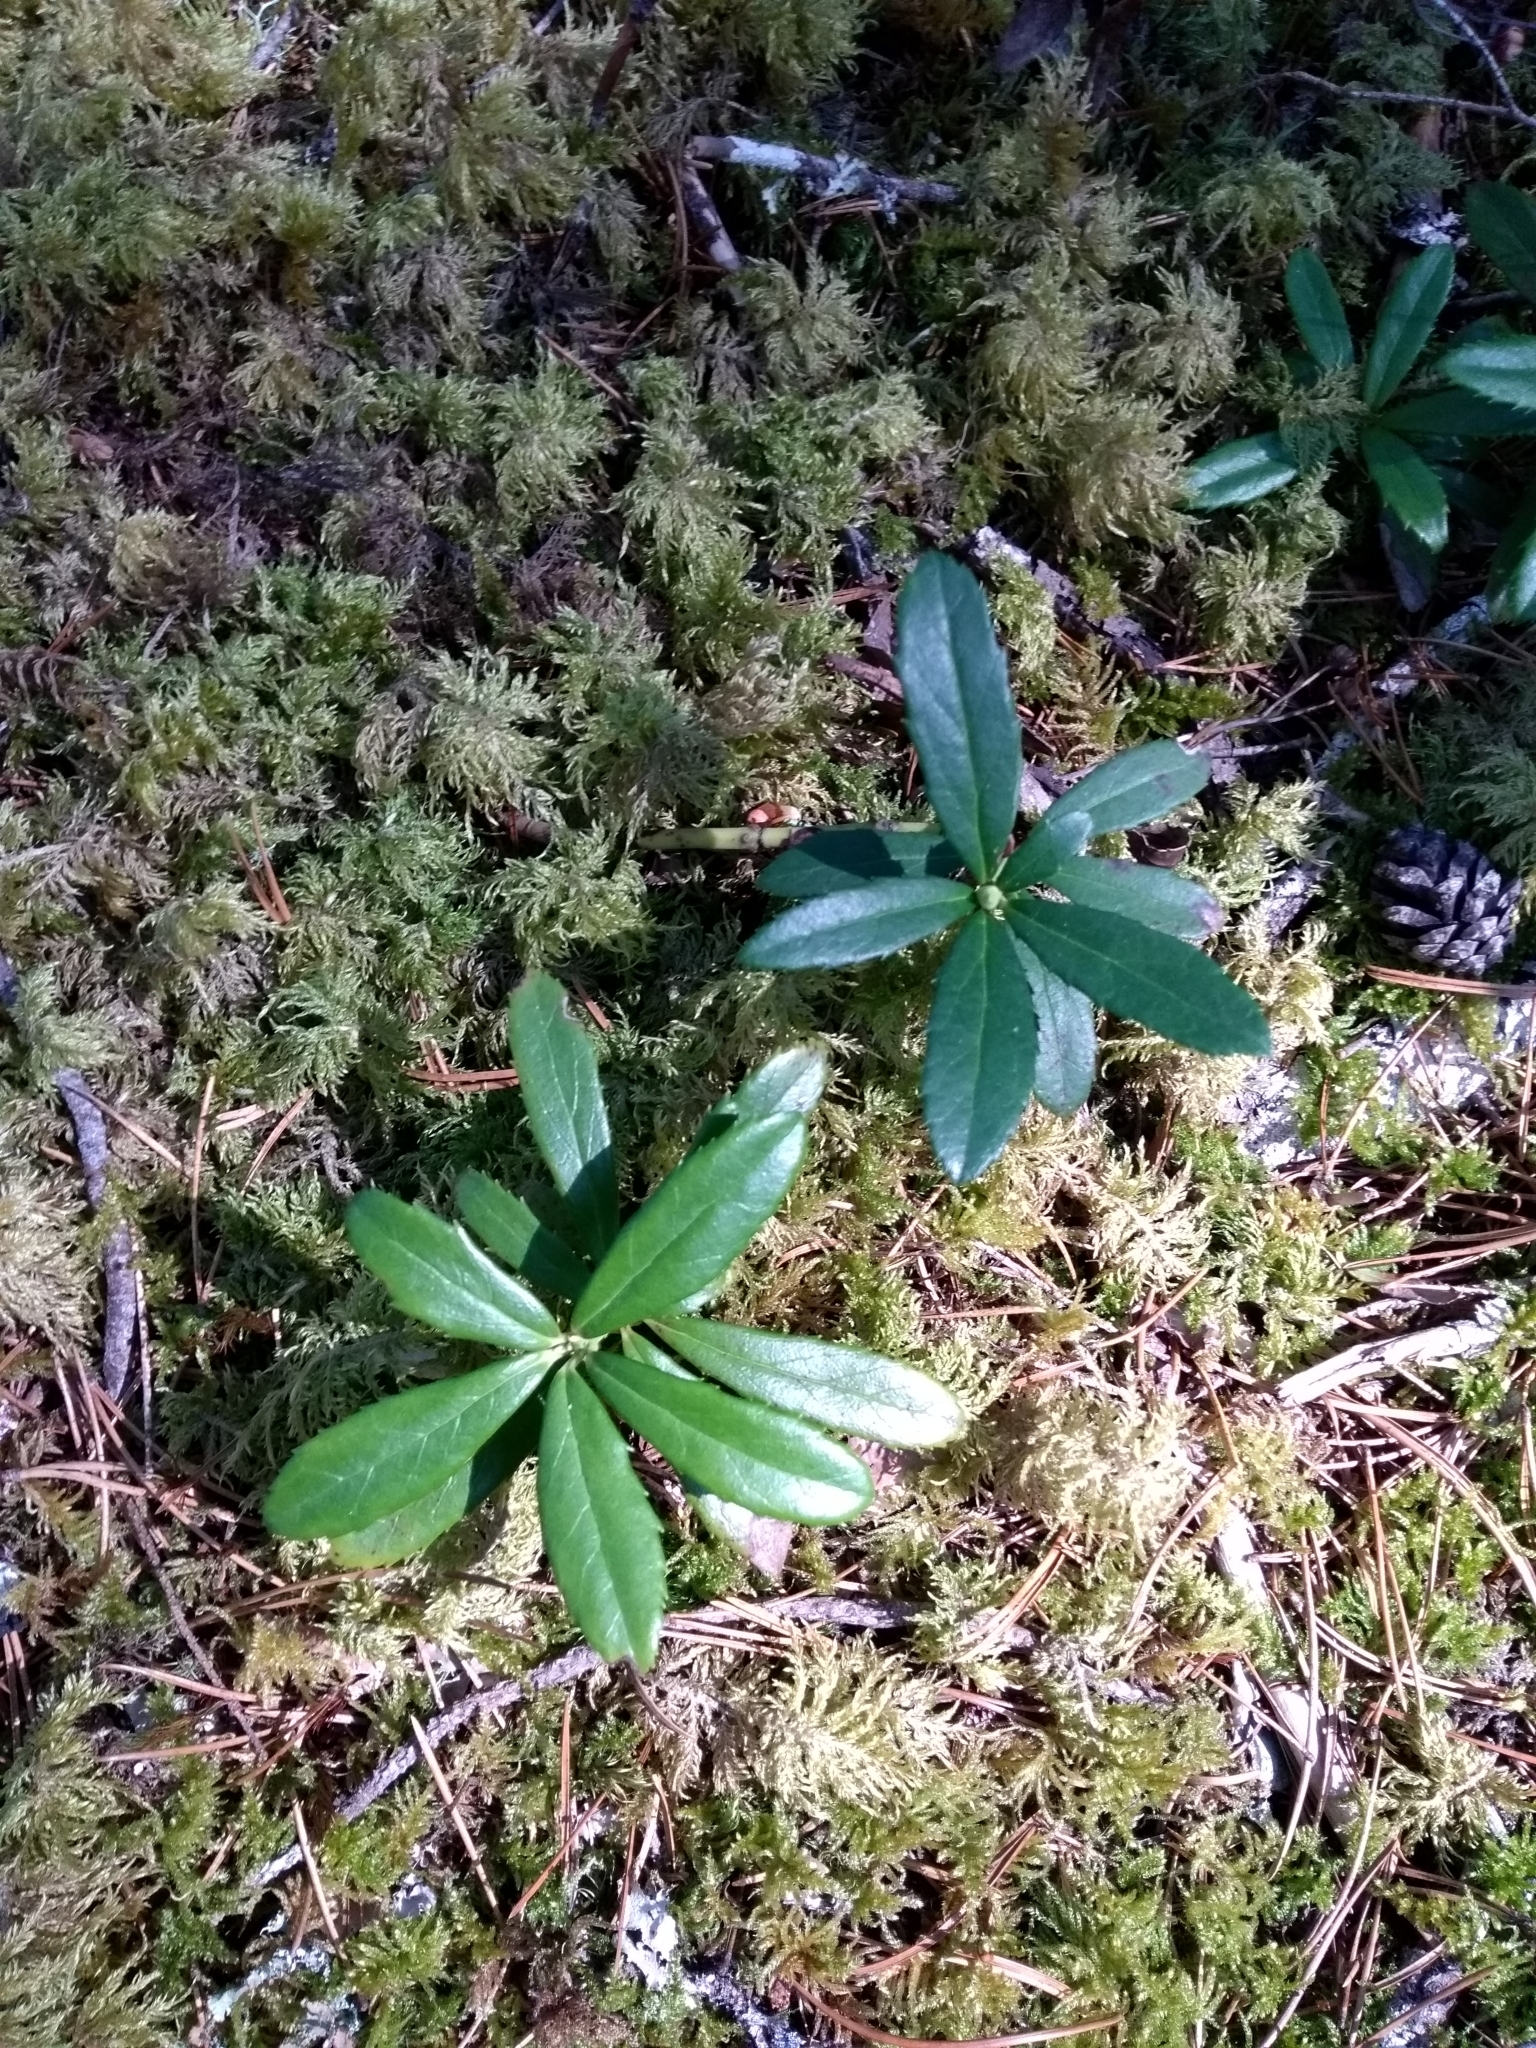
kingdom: Plantae
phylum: Tracheophyta
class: Magnoliopsida
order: Ericales
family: Ericaceae
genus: Chimaphila
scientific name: Chimaphila umbellata
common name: Pipsissewa
